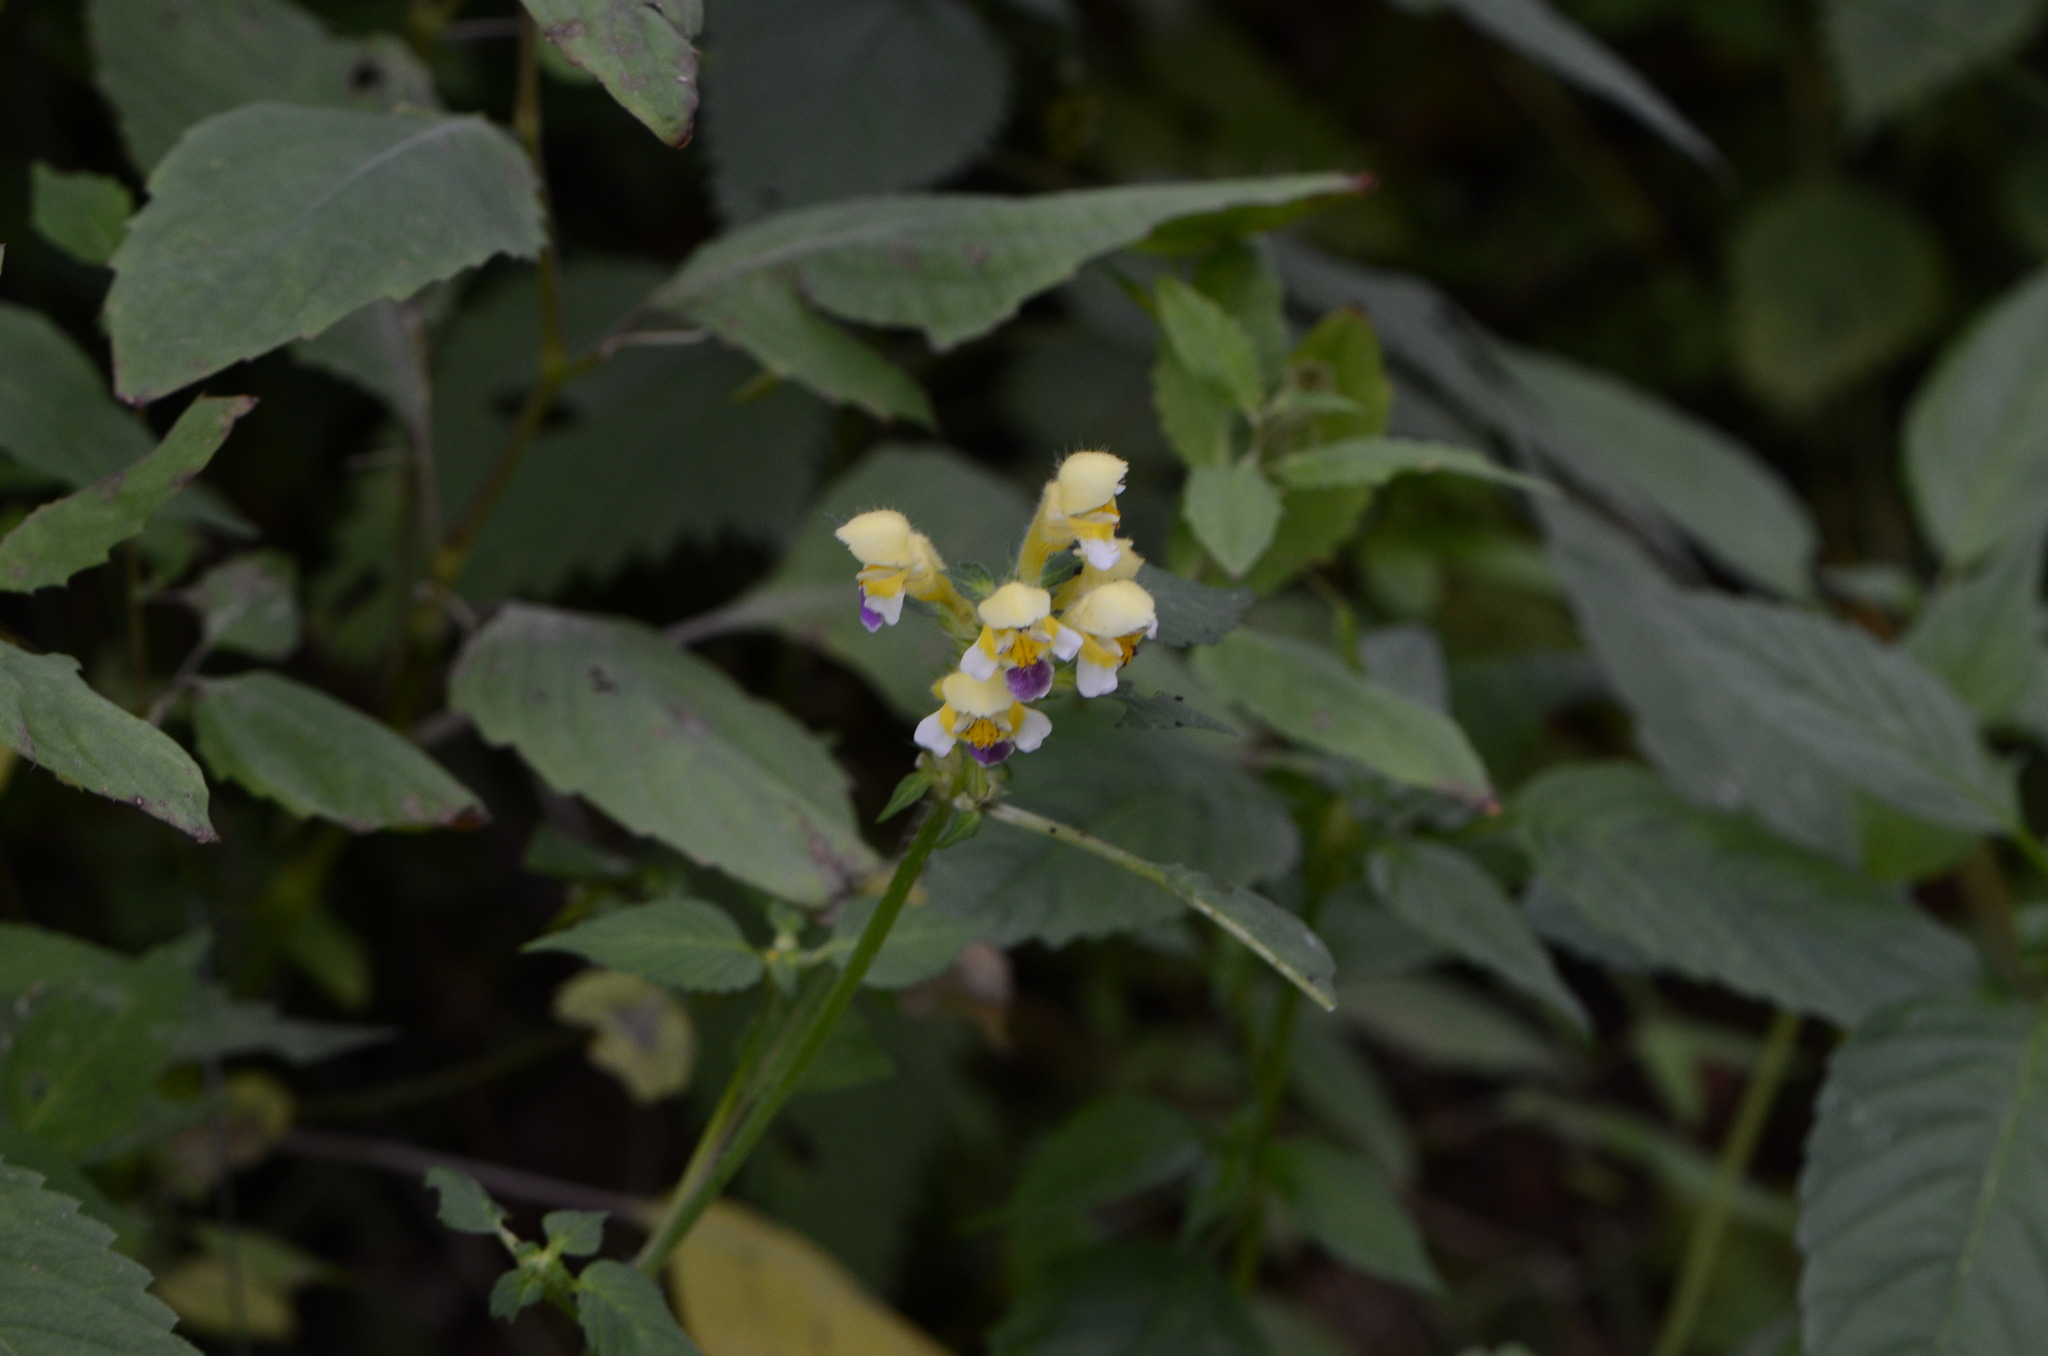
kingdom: Plantae
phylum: Tracheophyta
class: Magnoliopsida
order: Lamiales
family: Lamiaceae
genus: Galeopsis
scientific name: Galeopsis speciosa
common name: Large-flowered hemp-nettle
